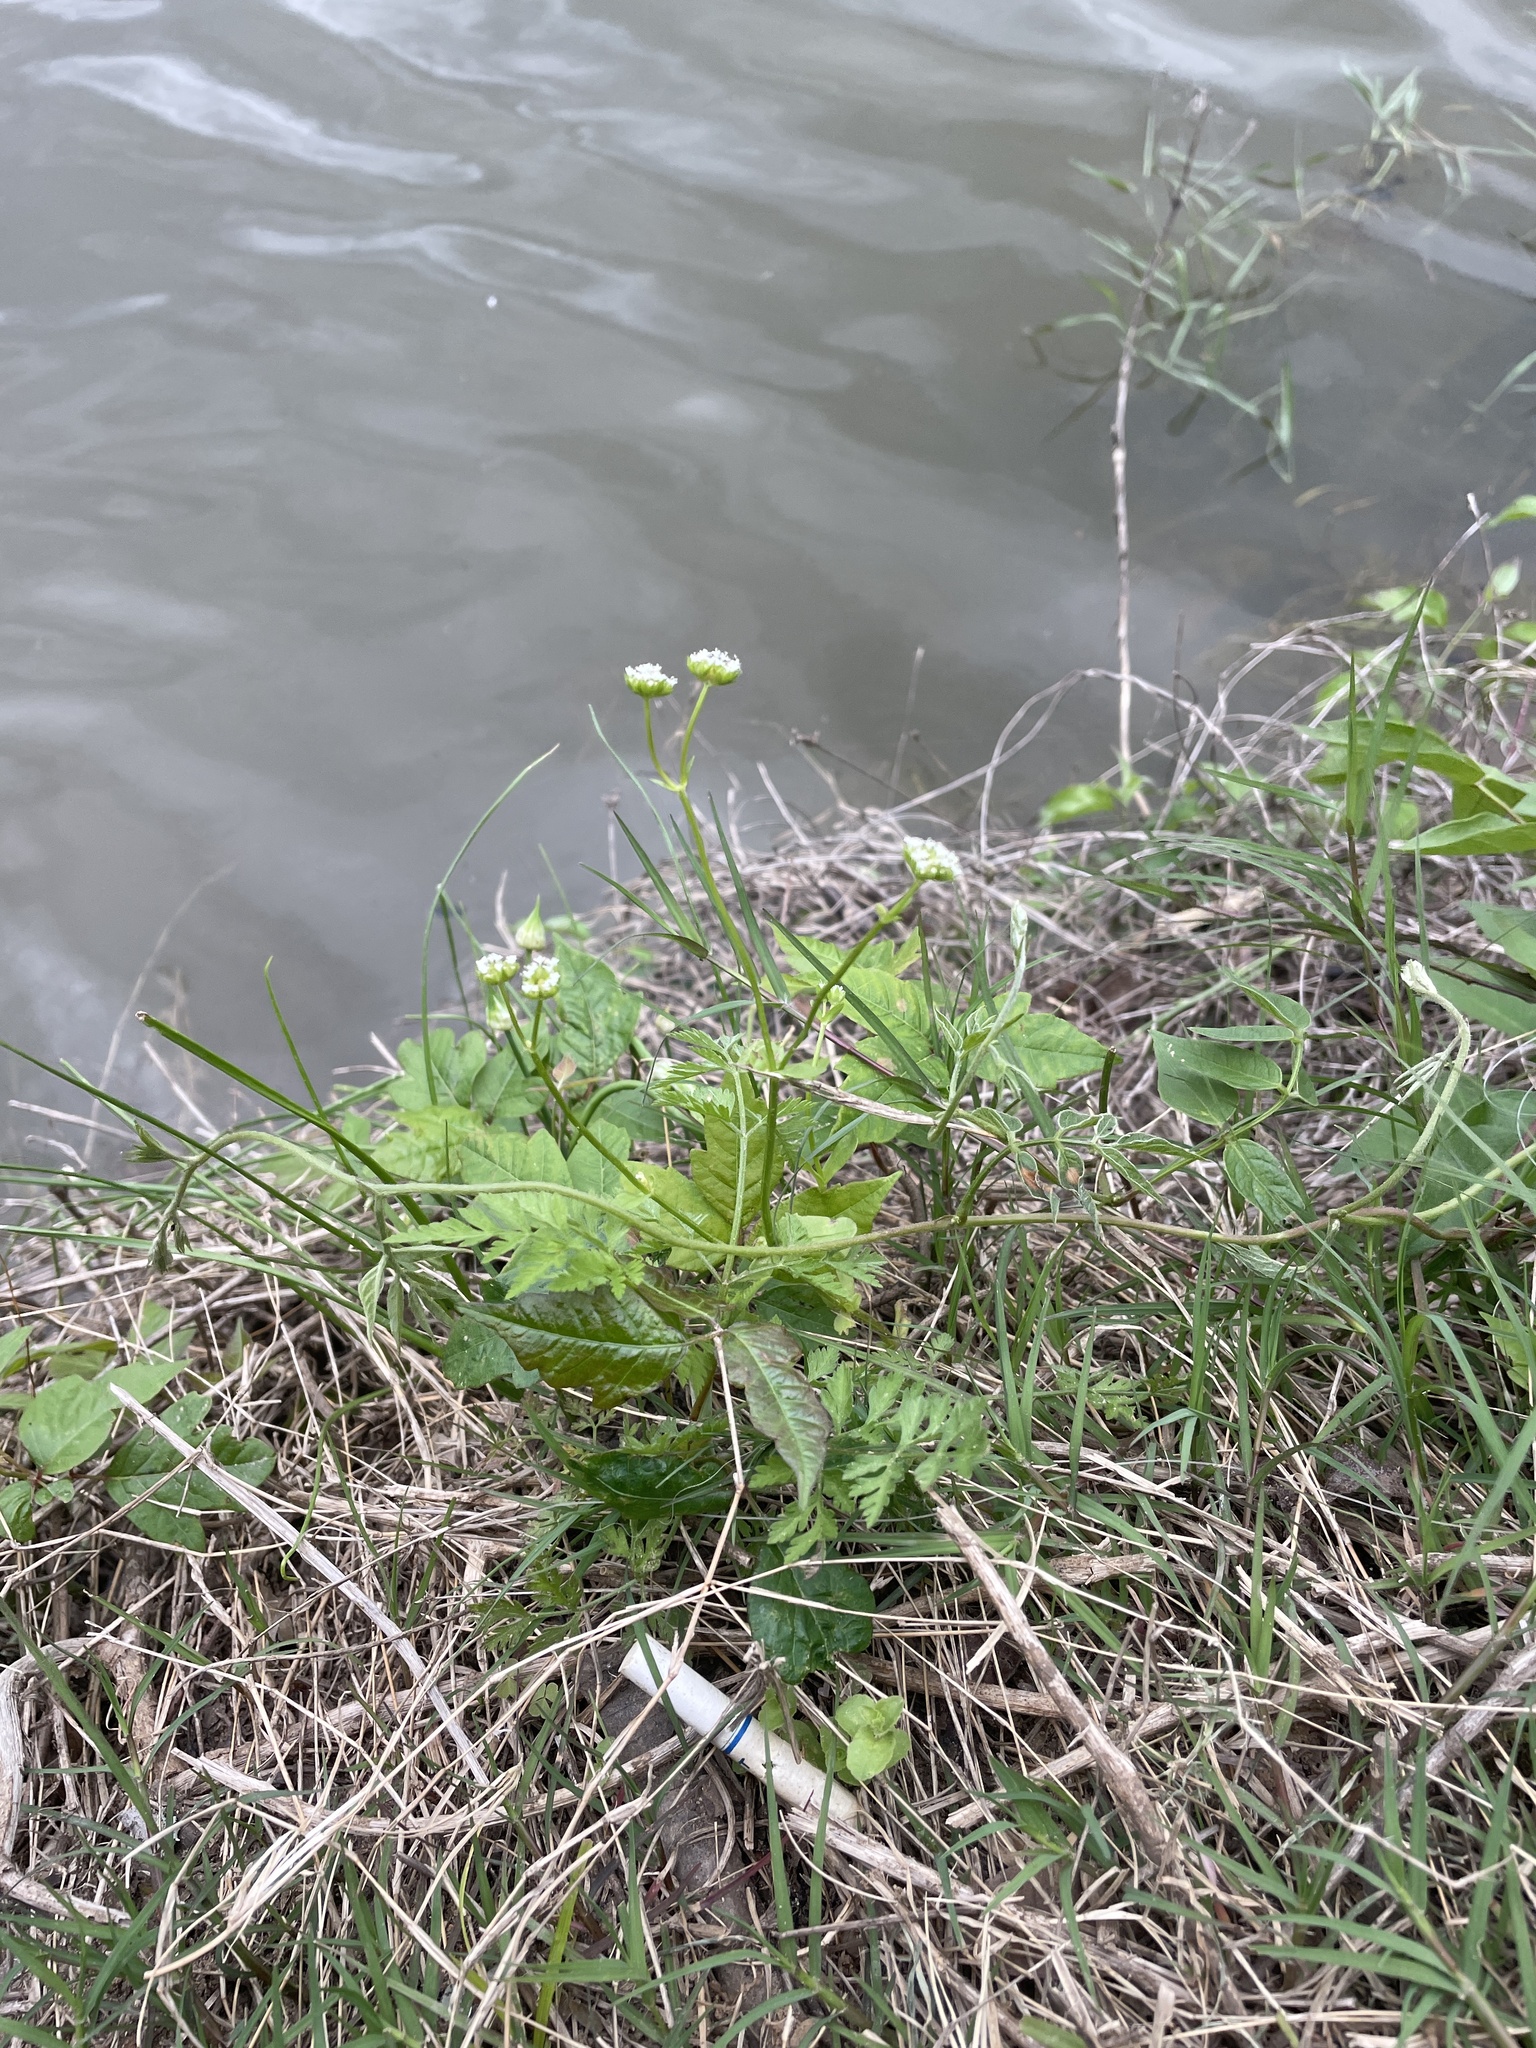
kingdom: Plantae
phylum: Tracheophyta
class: Magnoliopsida
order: Dipsacales
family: Caprifoliaceae
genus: Valerianella
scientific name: Valerianella radiata
